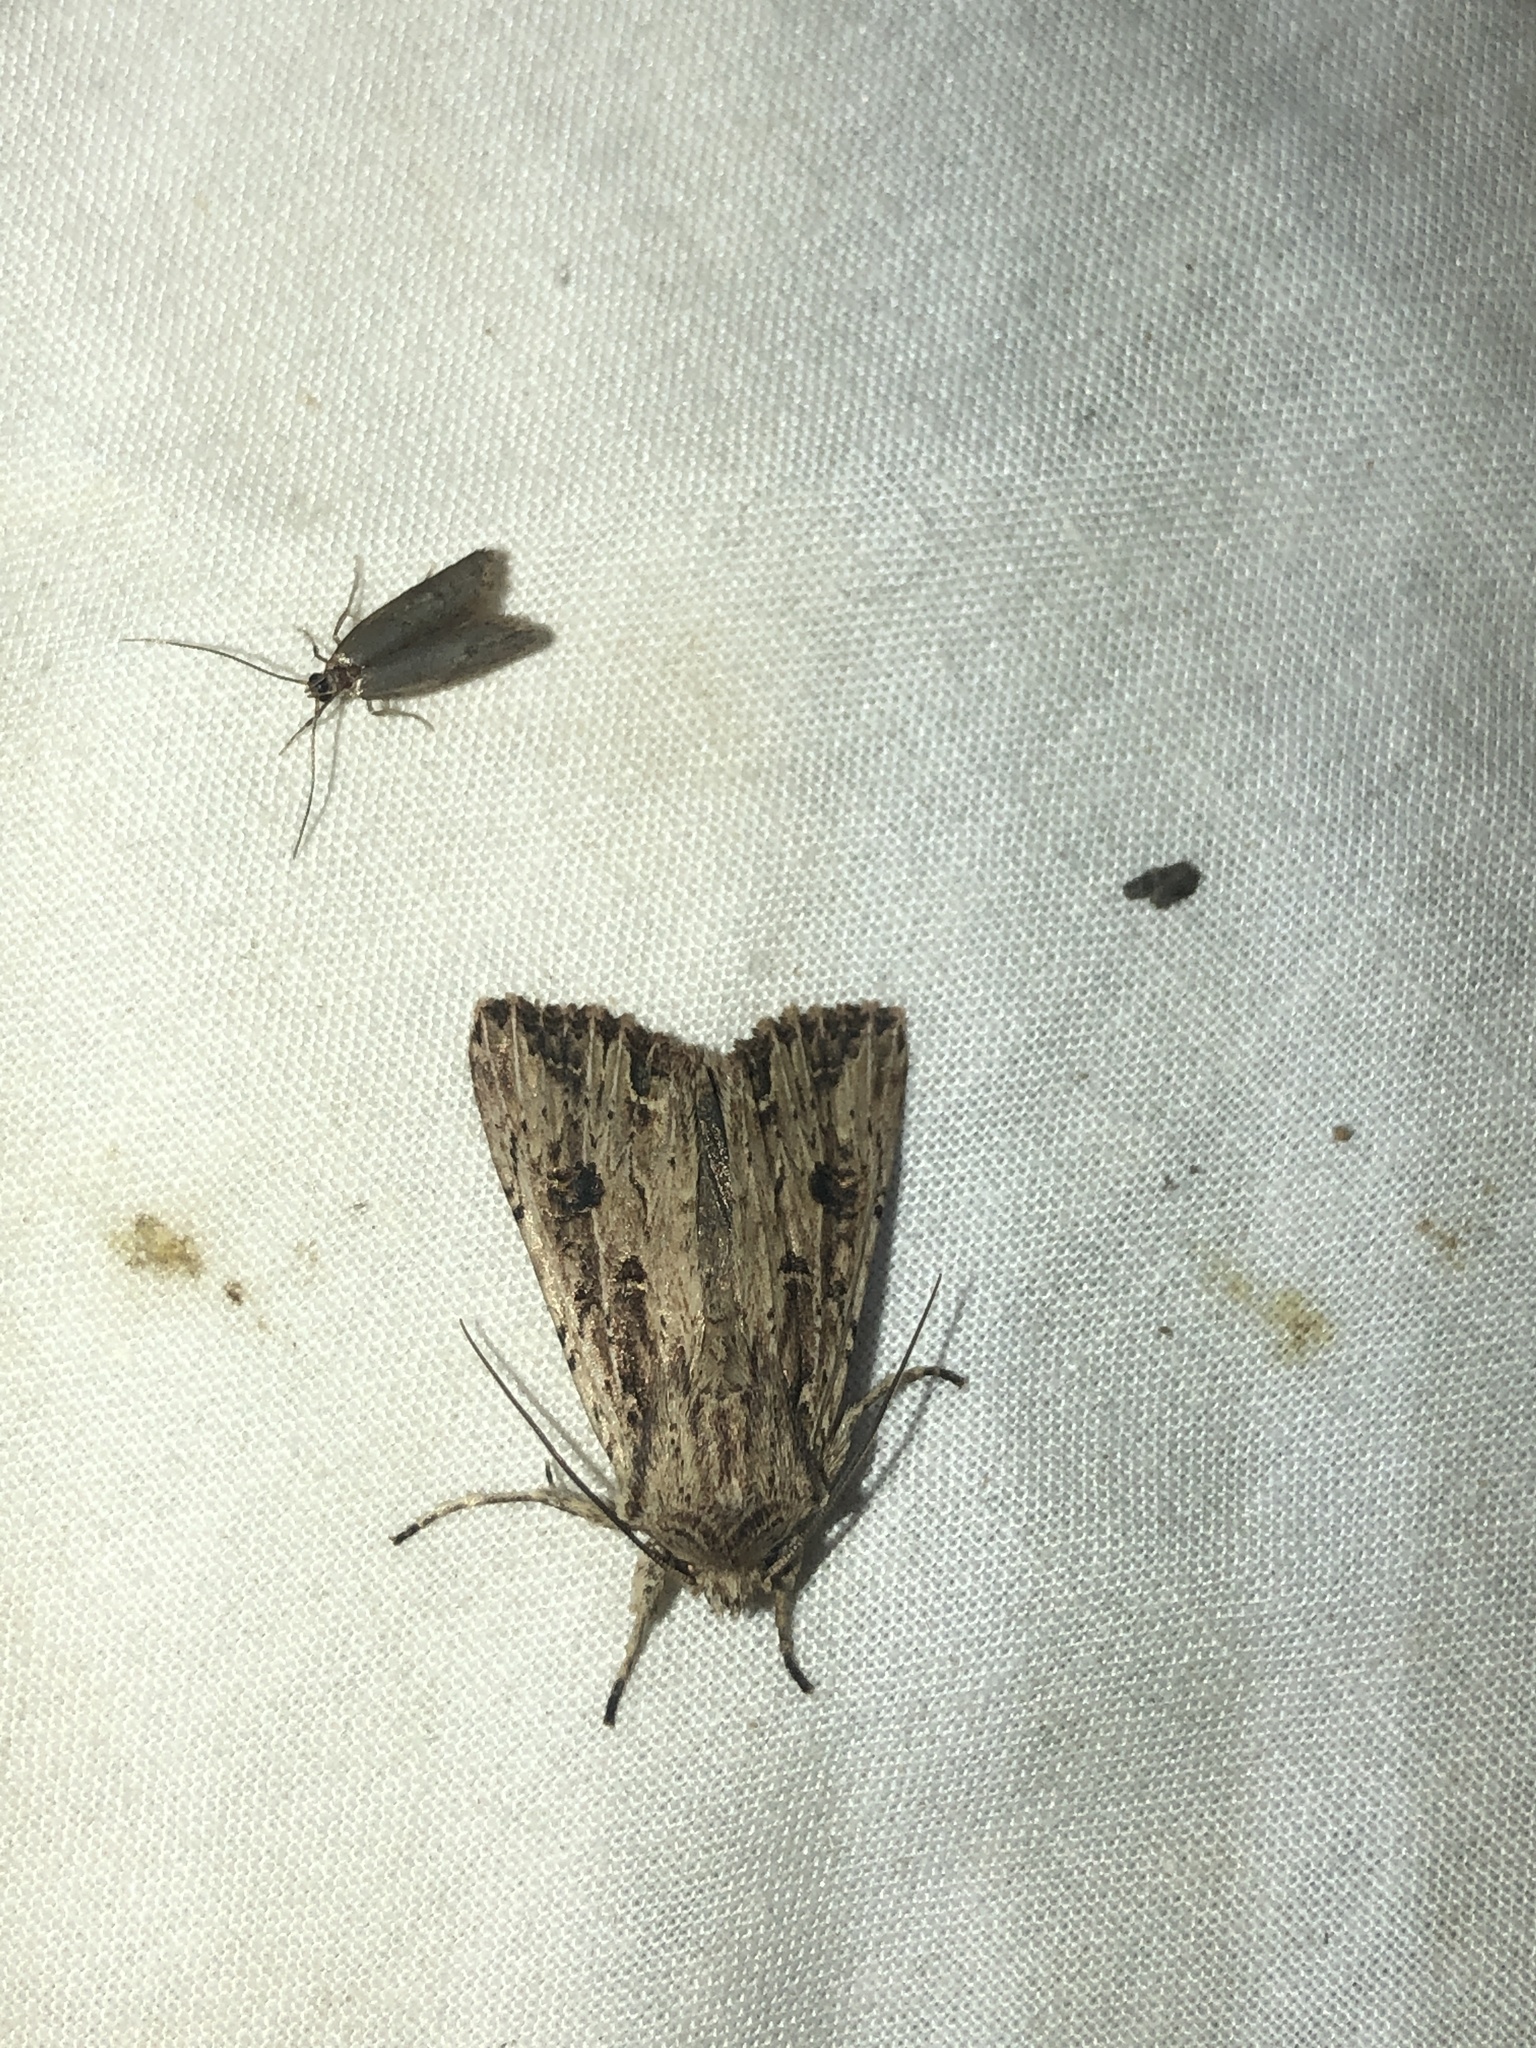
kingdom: Animalia
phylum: Arthropoda
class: Insecta
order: Lepidoptera
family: Noctuidae
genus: Ichneutica
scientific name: Ichneutica lignana
